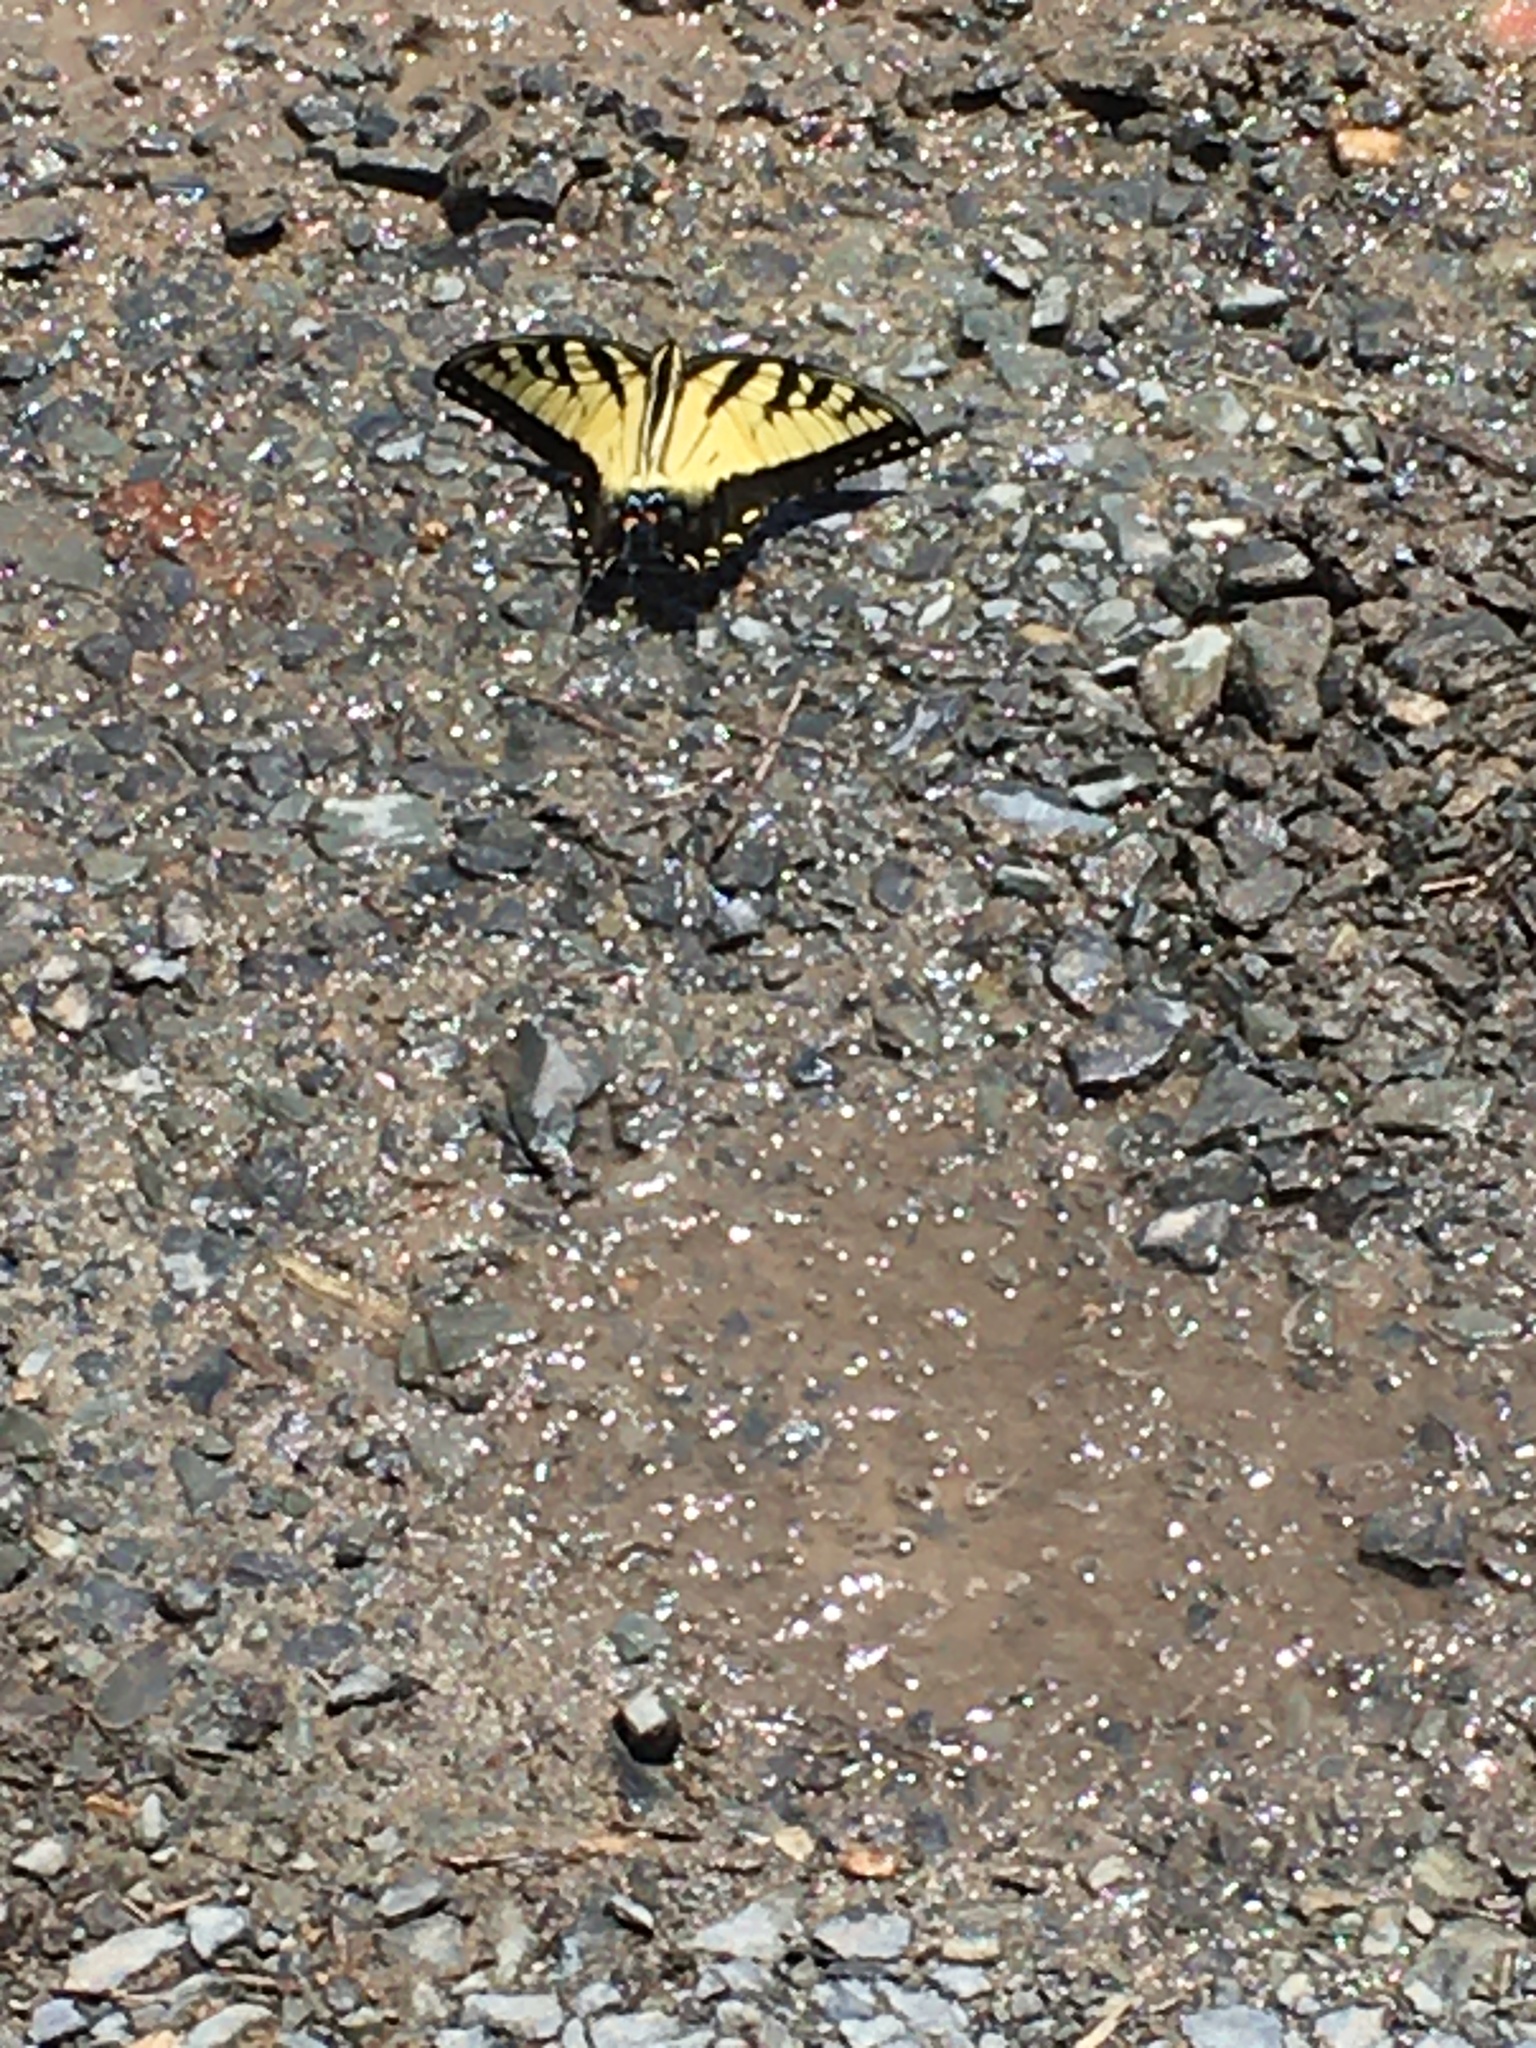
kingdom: Animalia
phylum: Arthropoda
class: Insecta
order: Lepidoptera
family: Papilionidae
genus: Papilio
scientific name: Papilio glaucus
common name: Tiger swallowtail
